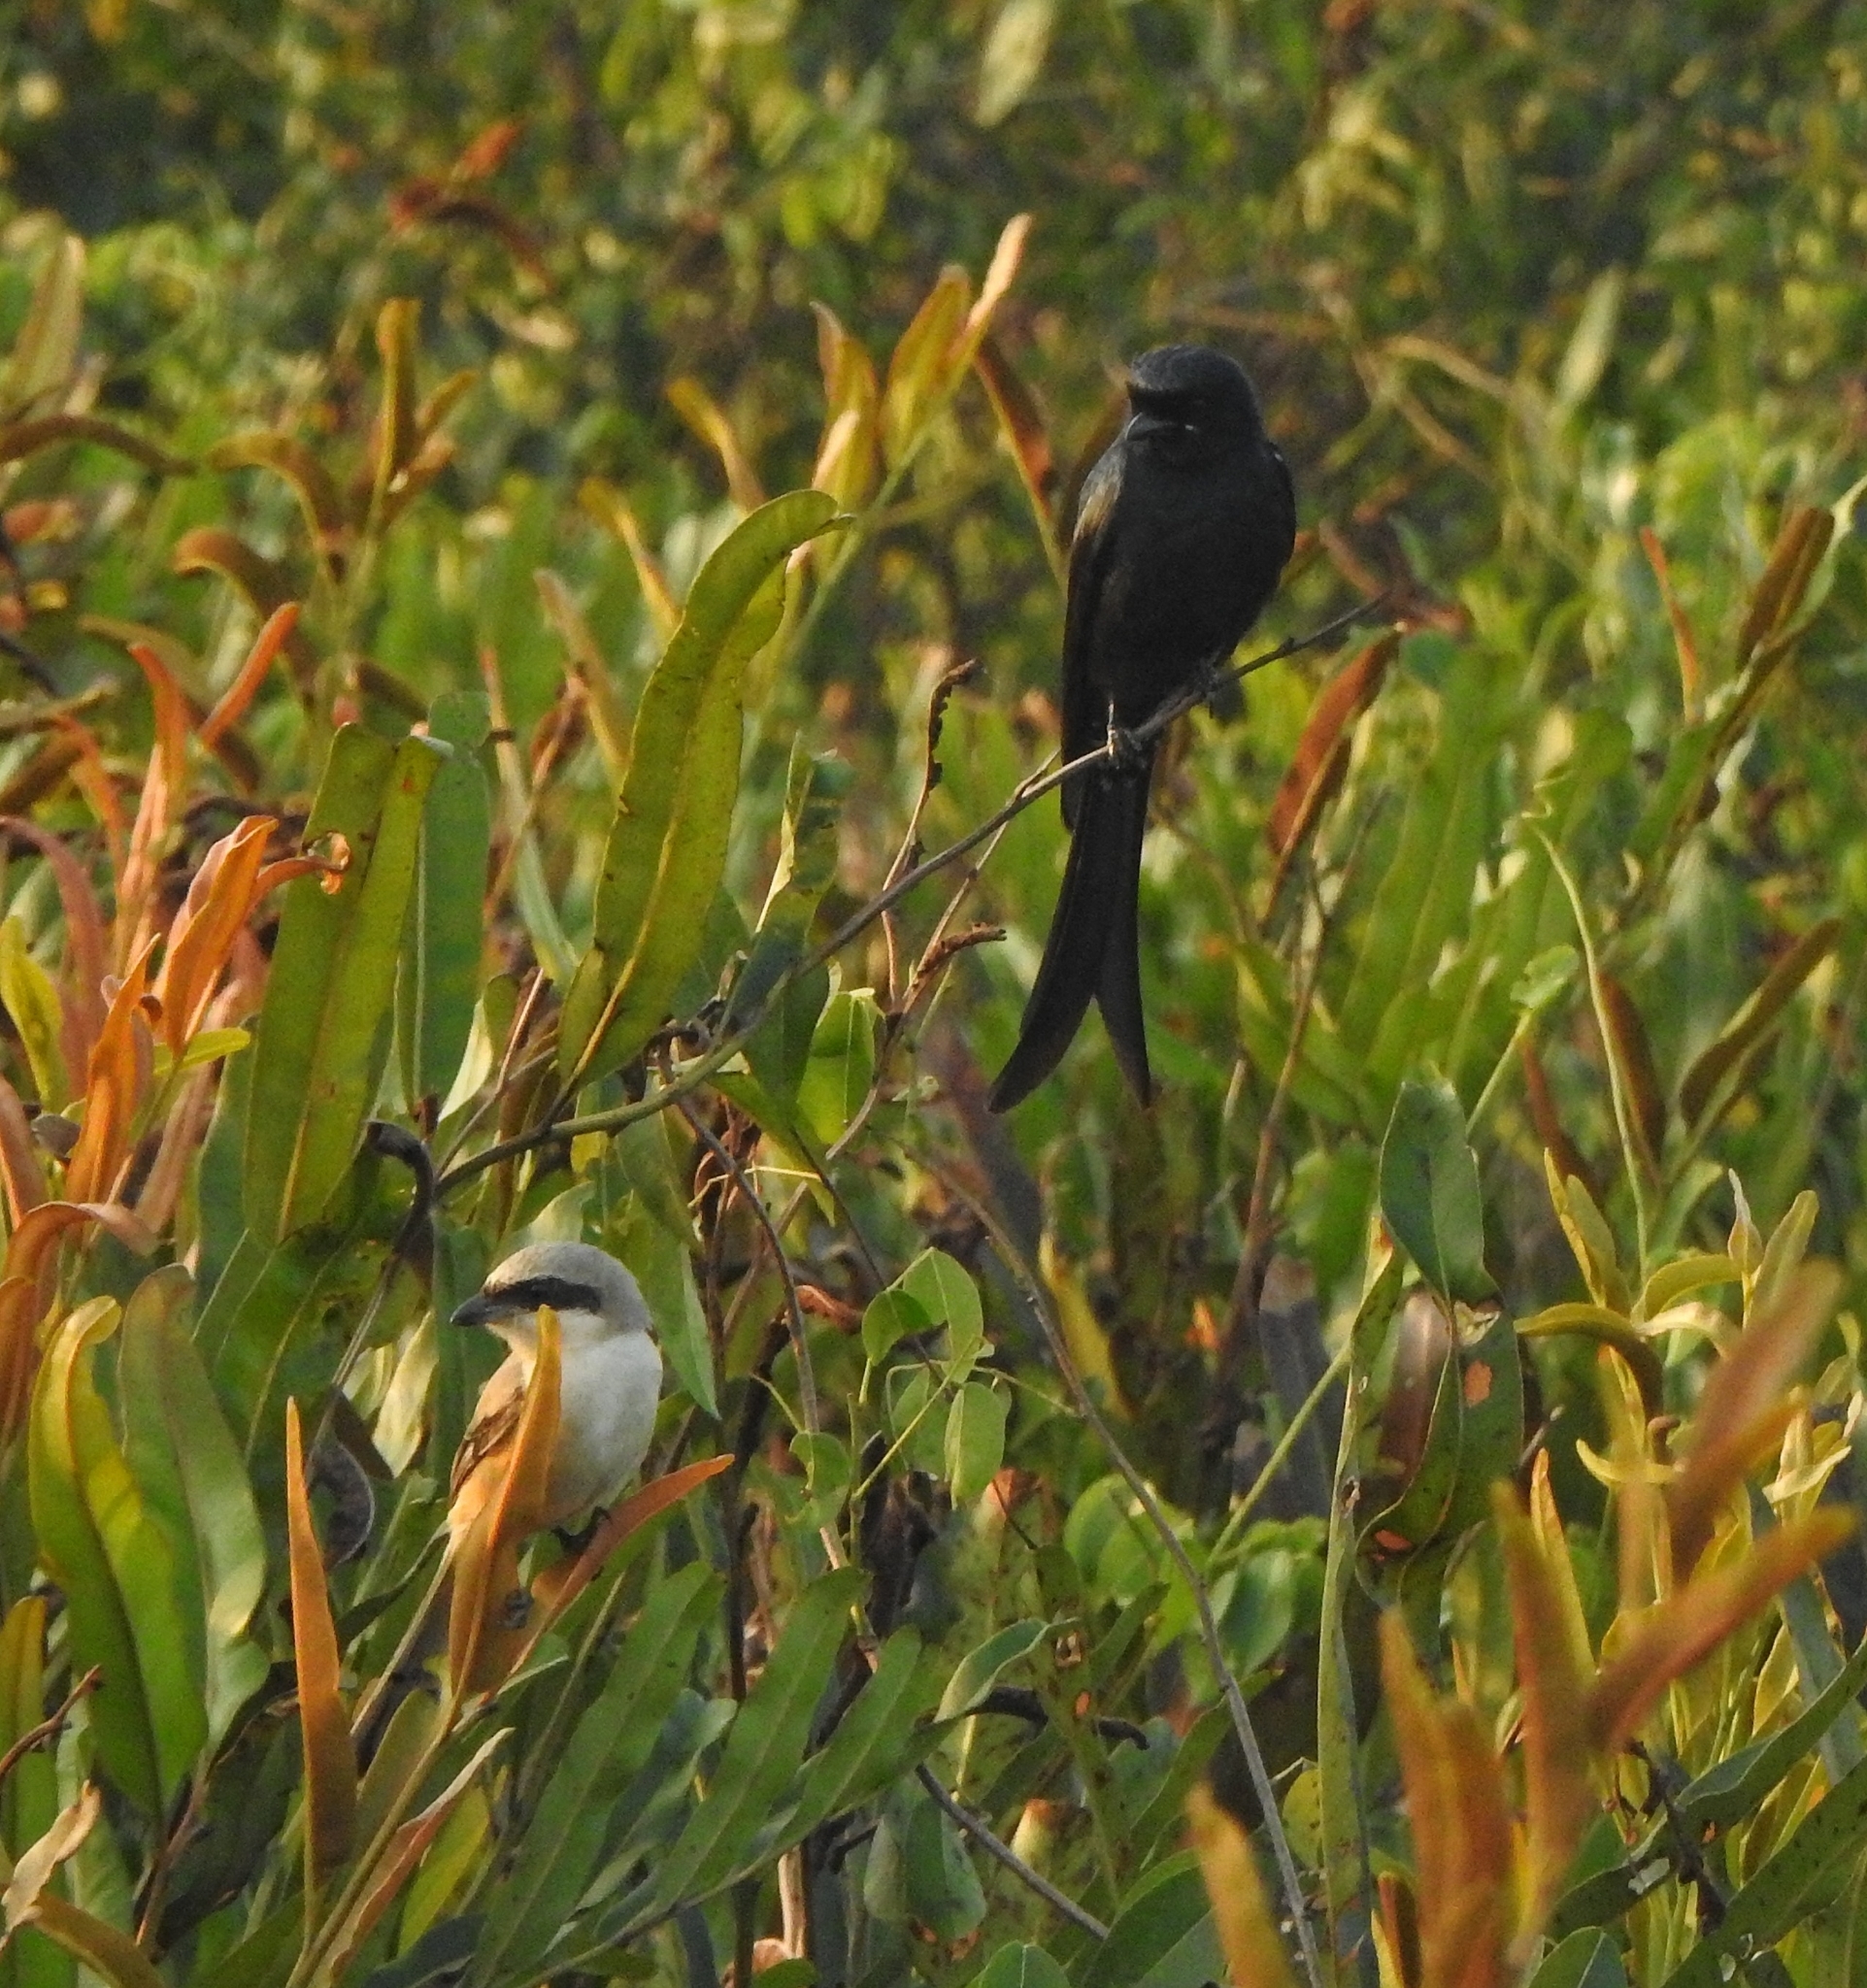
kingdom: Animalia
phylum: Chordata
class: Aves
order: Passeriformes
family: Dicruridae
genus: Dicrurus
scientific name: Dicrurus macrocercus
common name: Black drongo
